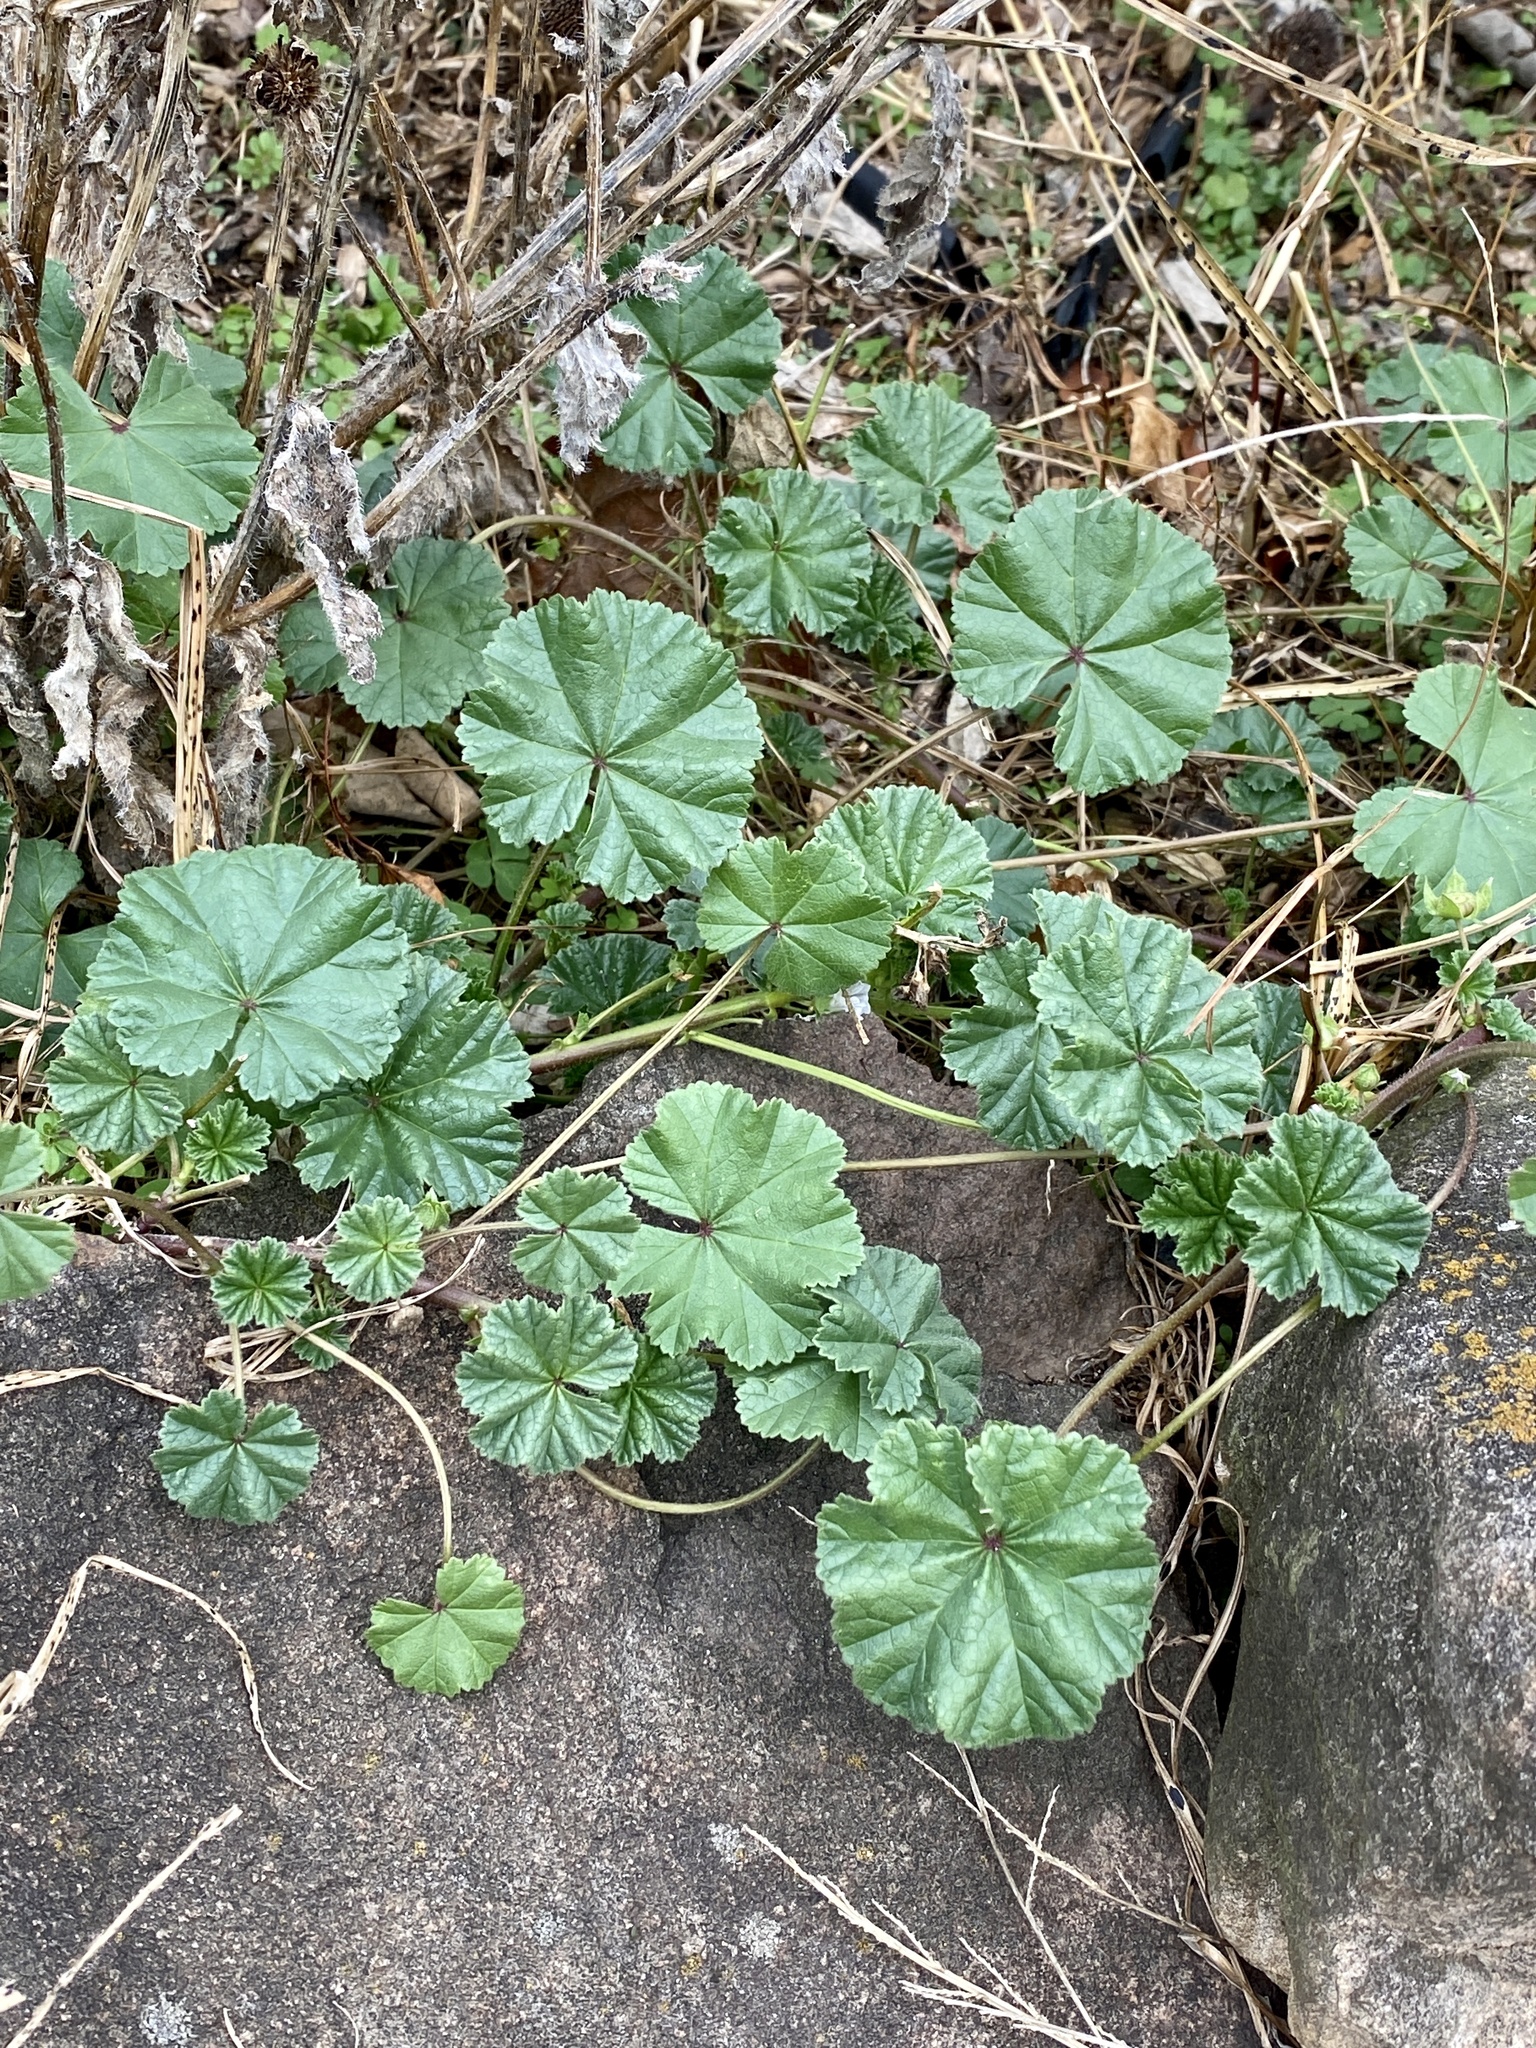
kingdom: Plantae
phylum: Tracheophyta
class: Magnoliopsida
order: Malvales
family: Malvaceae
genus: Malva
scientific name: Malva neglecta
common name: Common mallow
